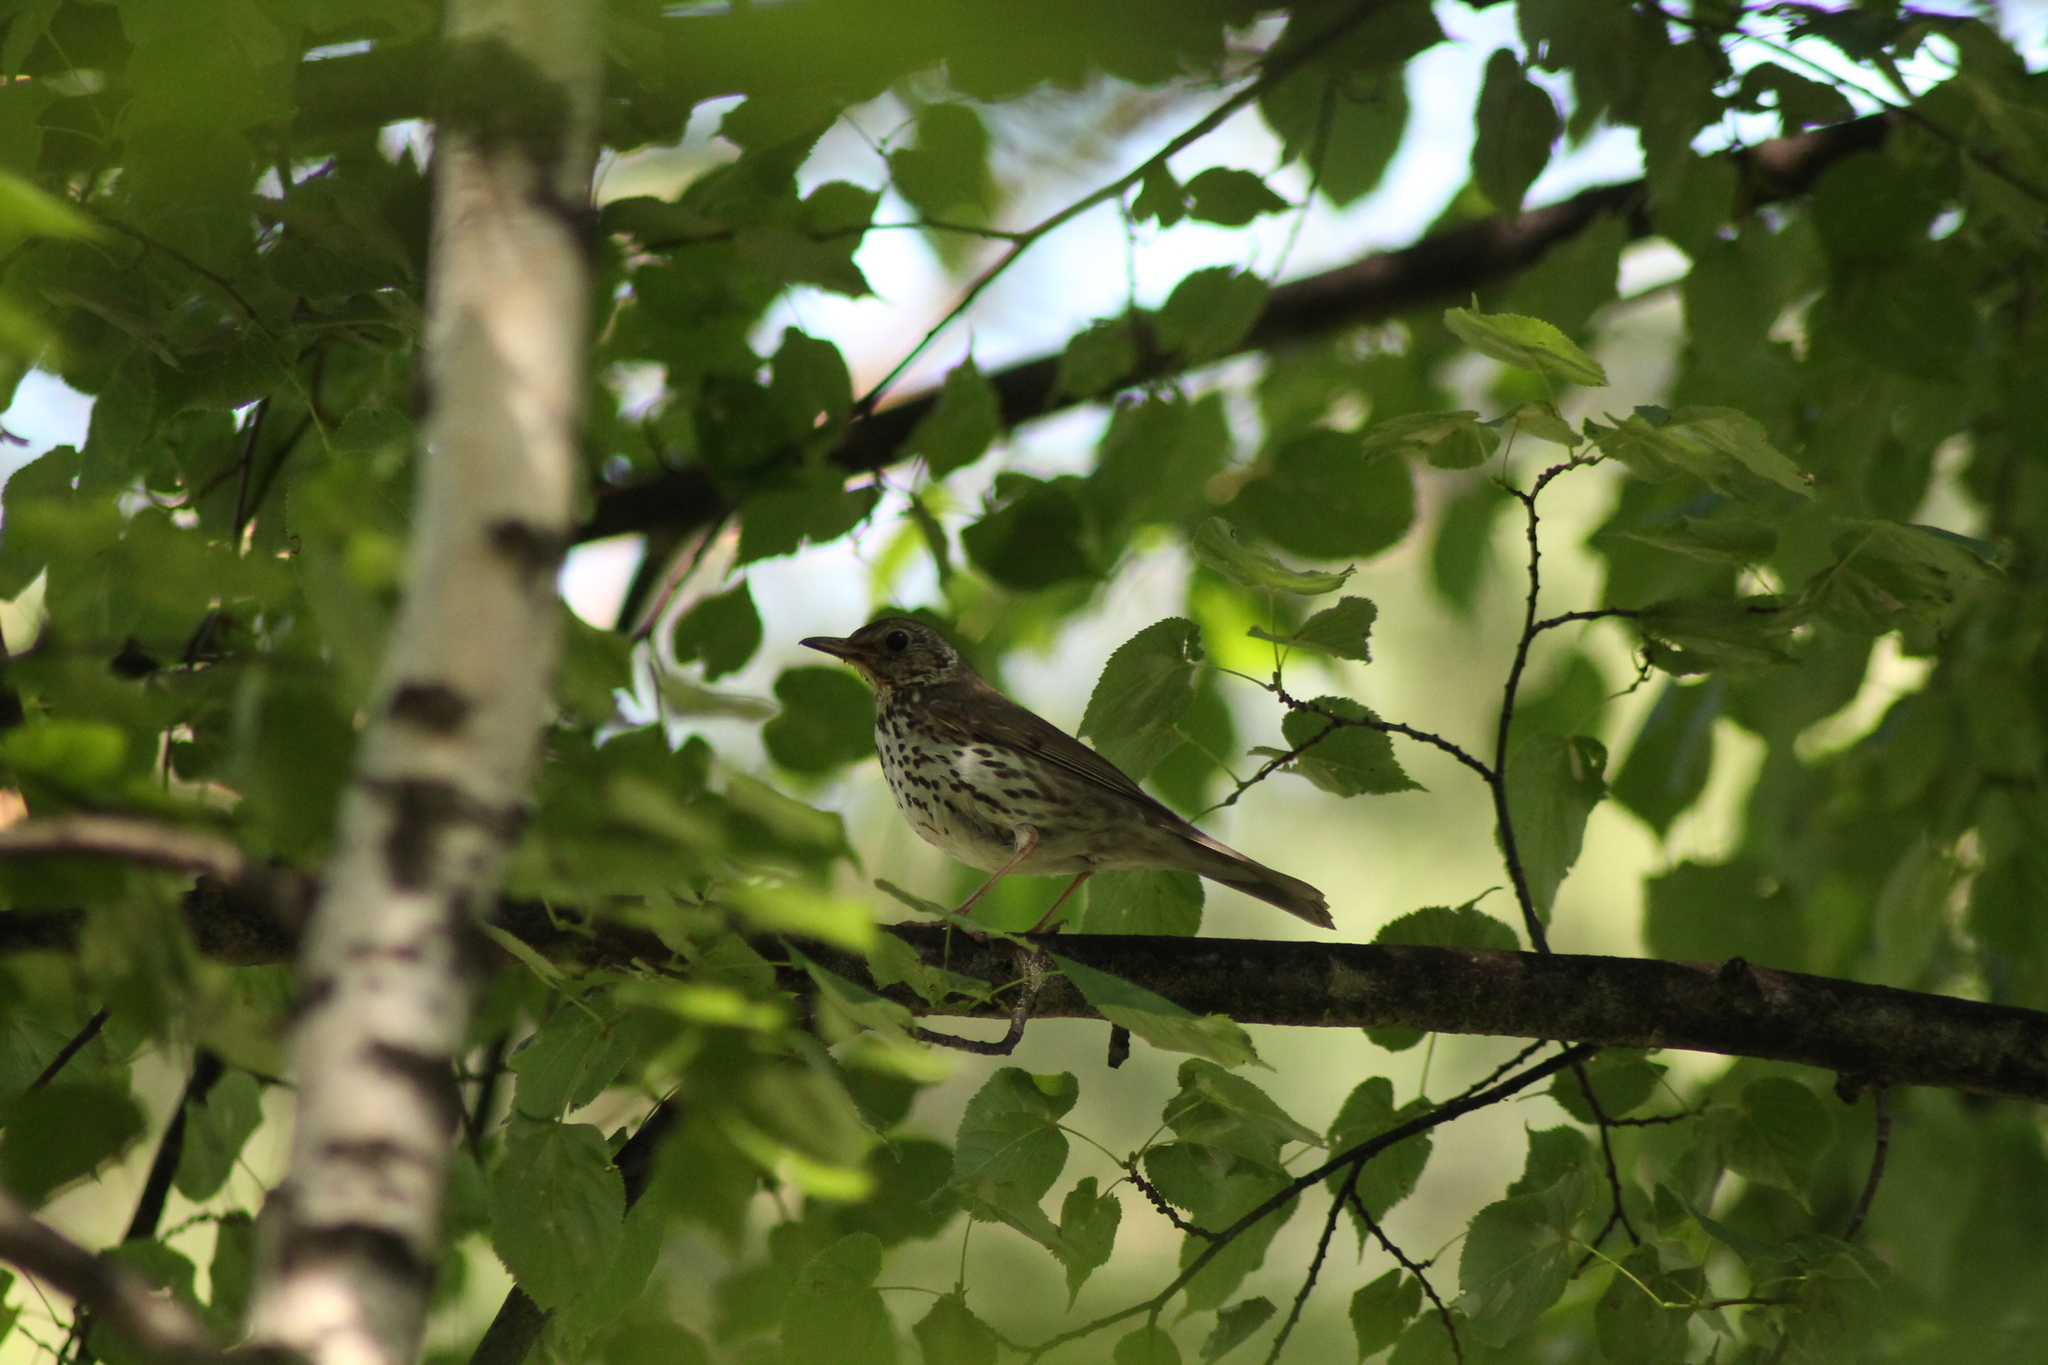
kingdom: Animalia
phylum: Chordata
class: Aves
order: Passeriformes
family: Turdidae
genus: Turdus
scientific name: Turdus philomelos
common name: Song thrush
